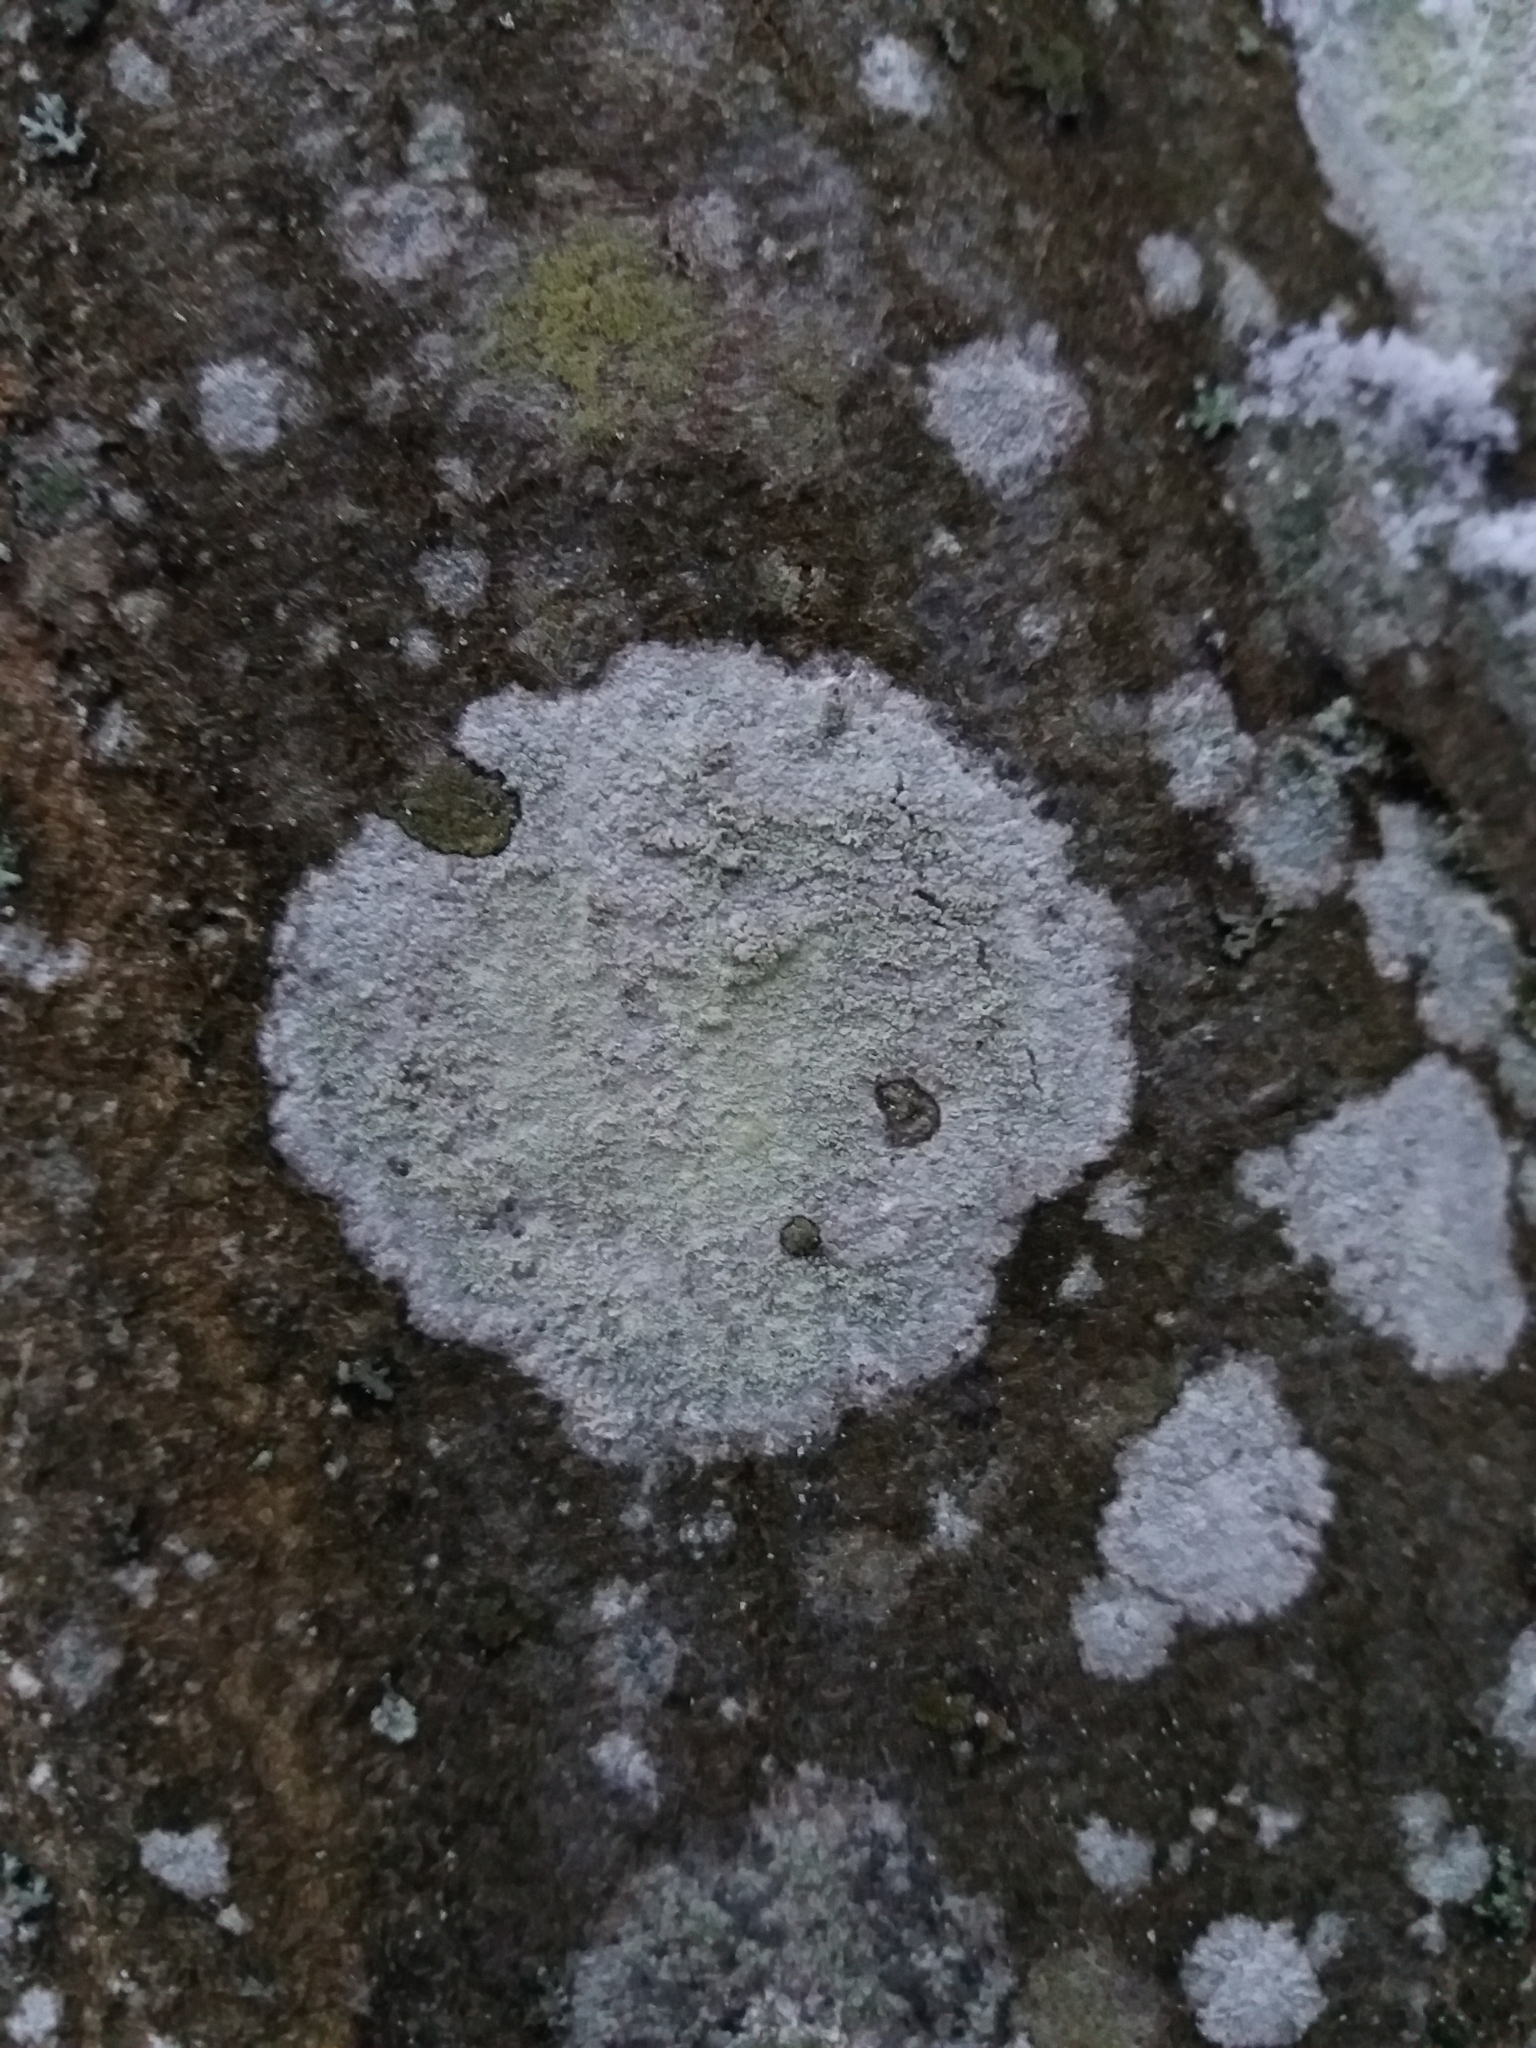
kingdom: Fungi
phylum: Ascomycota
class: Lecanoromycetes
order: Ostropales
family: Phlyctidaceae
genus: Phlyctis
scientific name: Phlyctis argena
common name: Whitewash lichen
